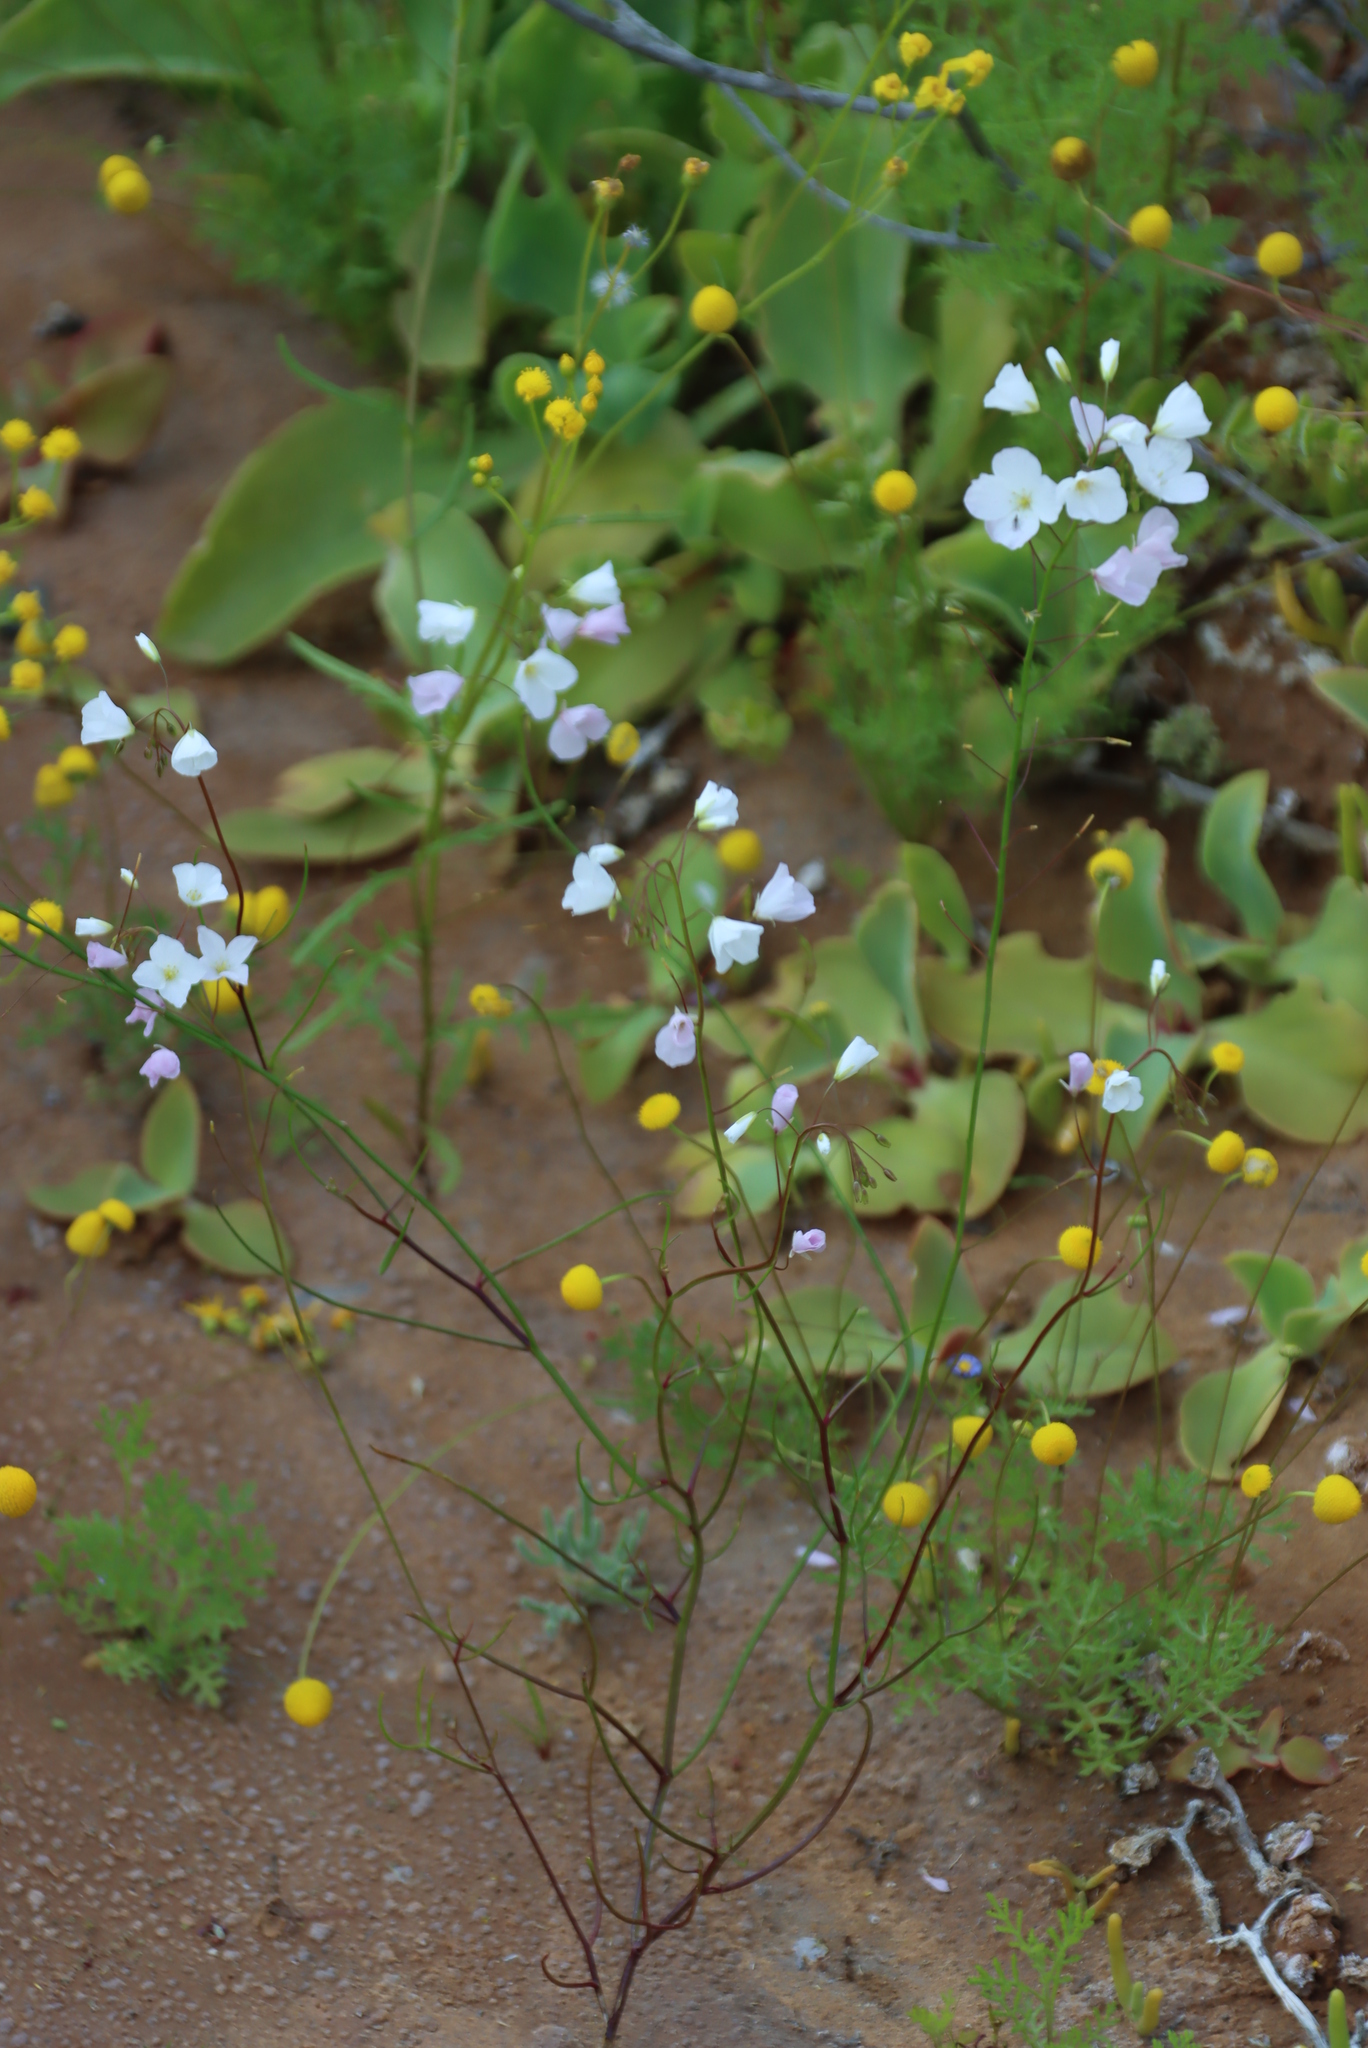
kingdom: Plantae
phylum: Tracheophyta
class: Magnoliopsida
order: Brassicales
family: Brassicaceae
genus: Heliophila
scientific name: Heliophila variabilis
